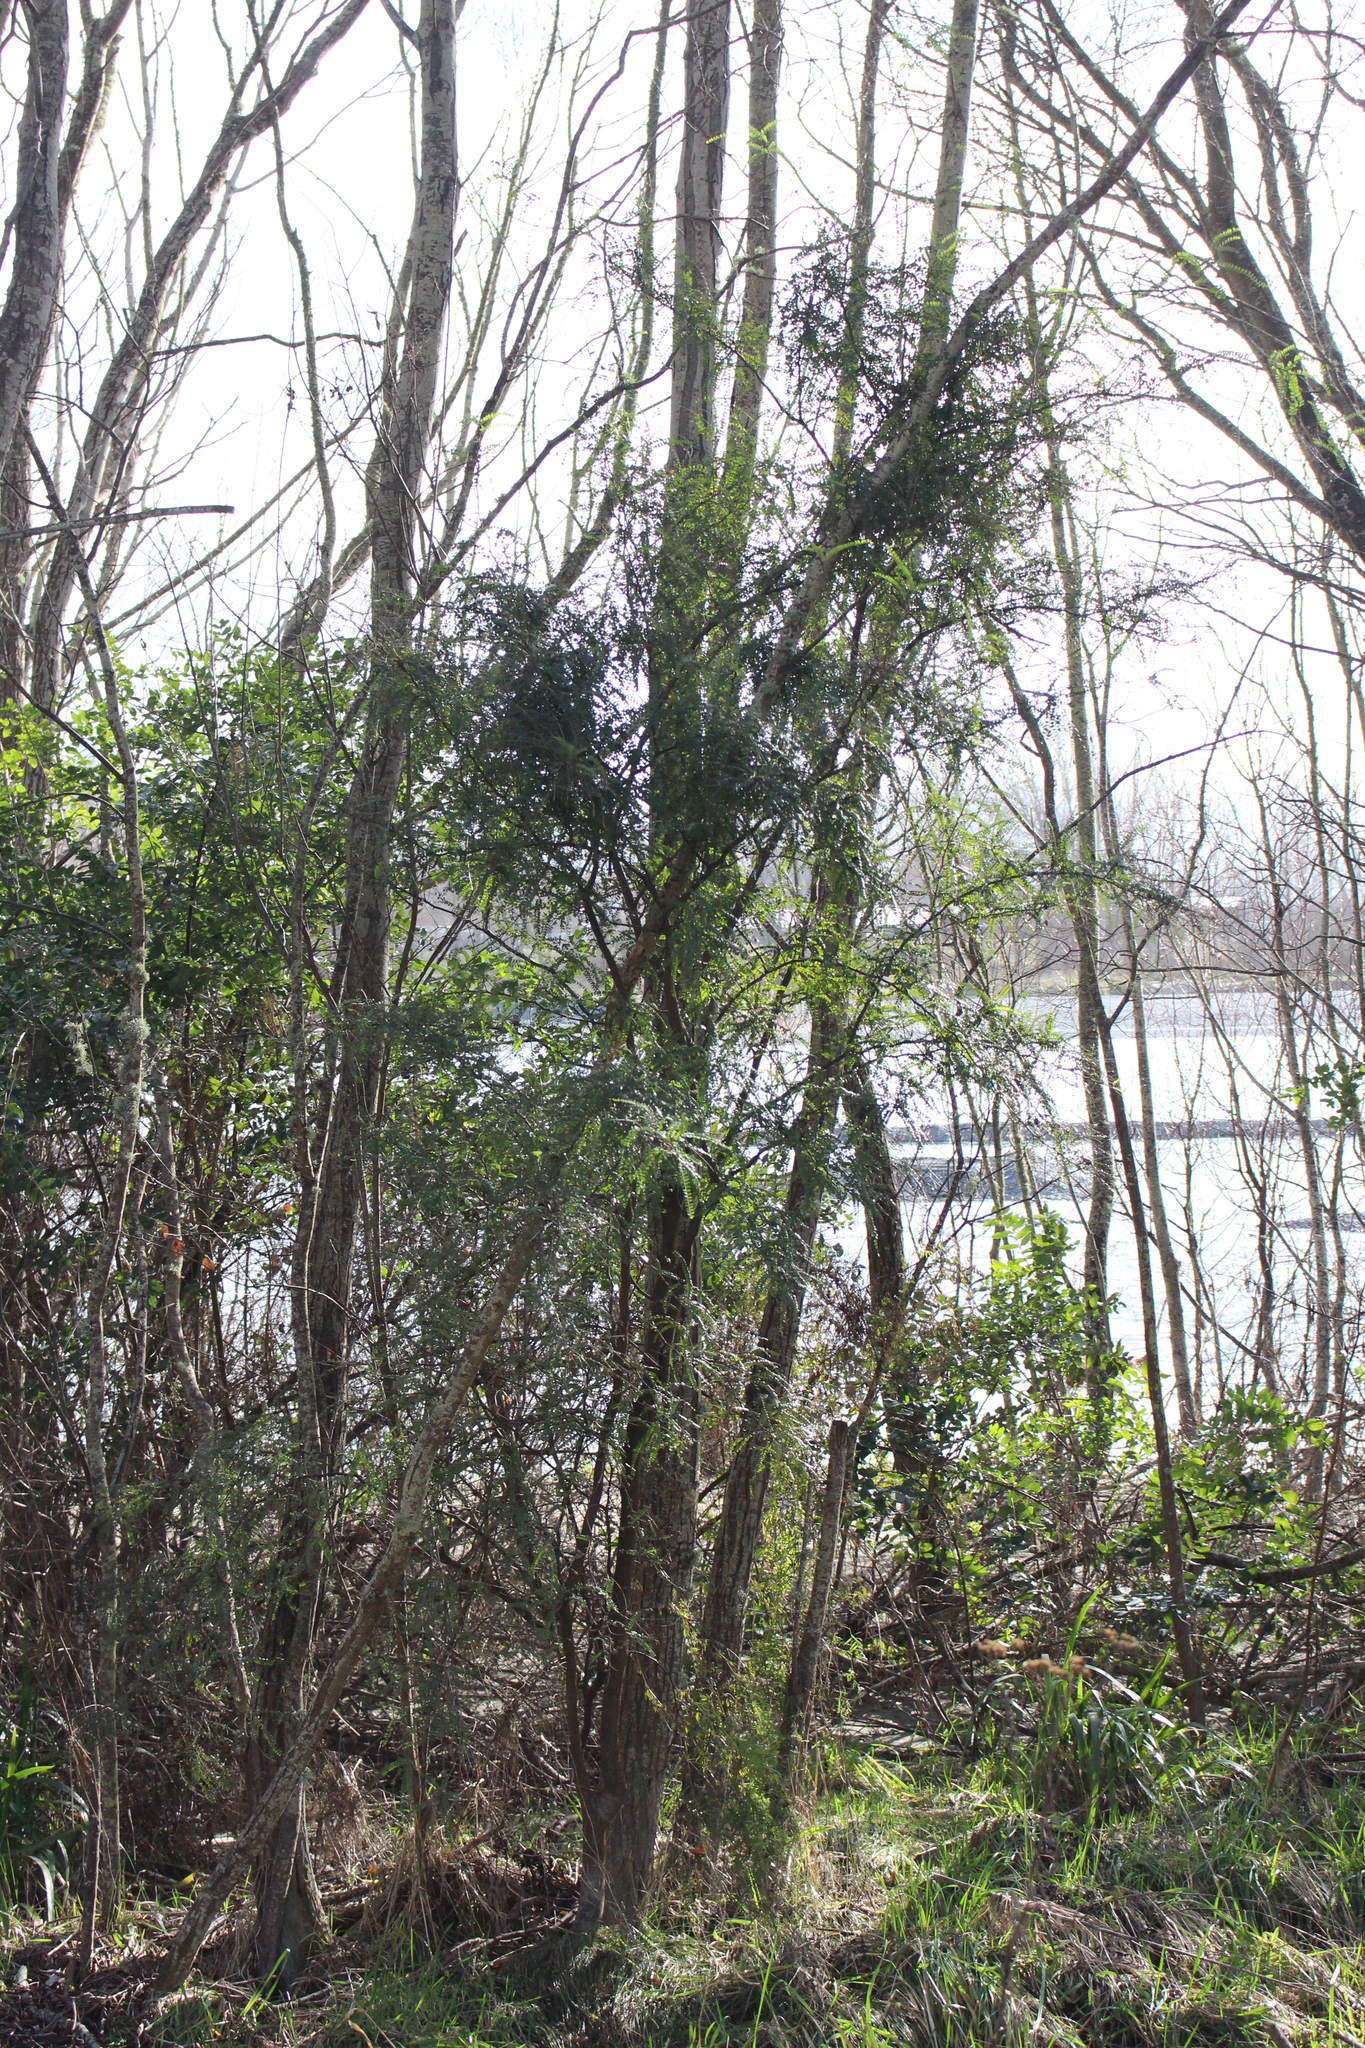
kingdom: Plantae
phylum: Tracheophyta
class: Magnoliopsida
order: Fabales
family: Fabaceae
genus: Sophora
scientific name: Sophora microphylla
